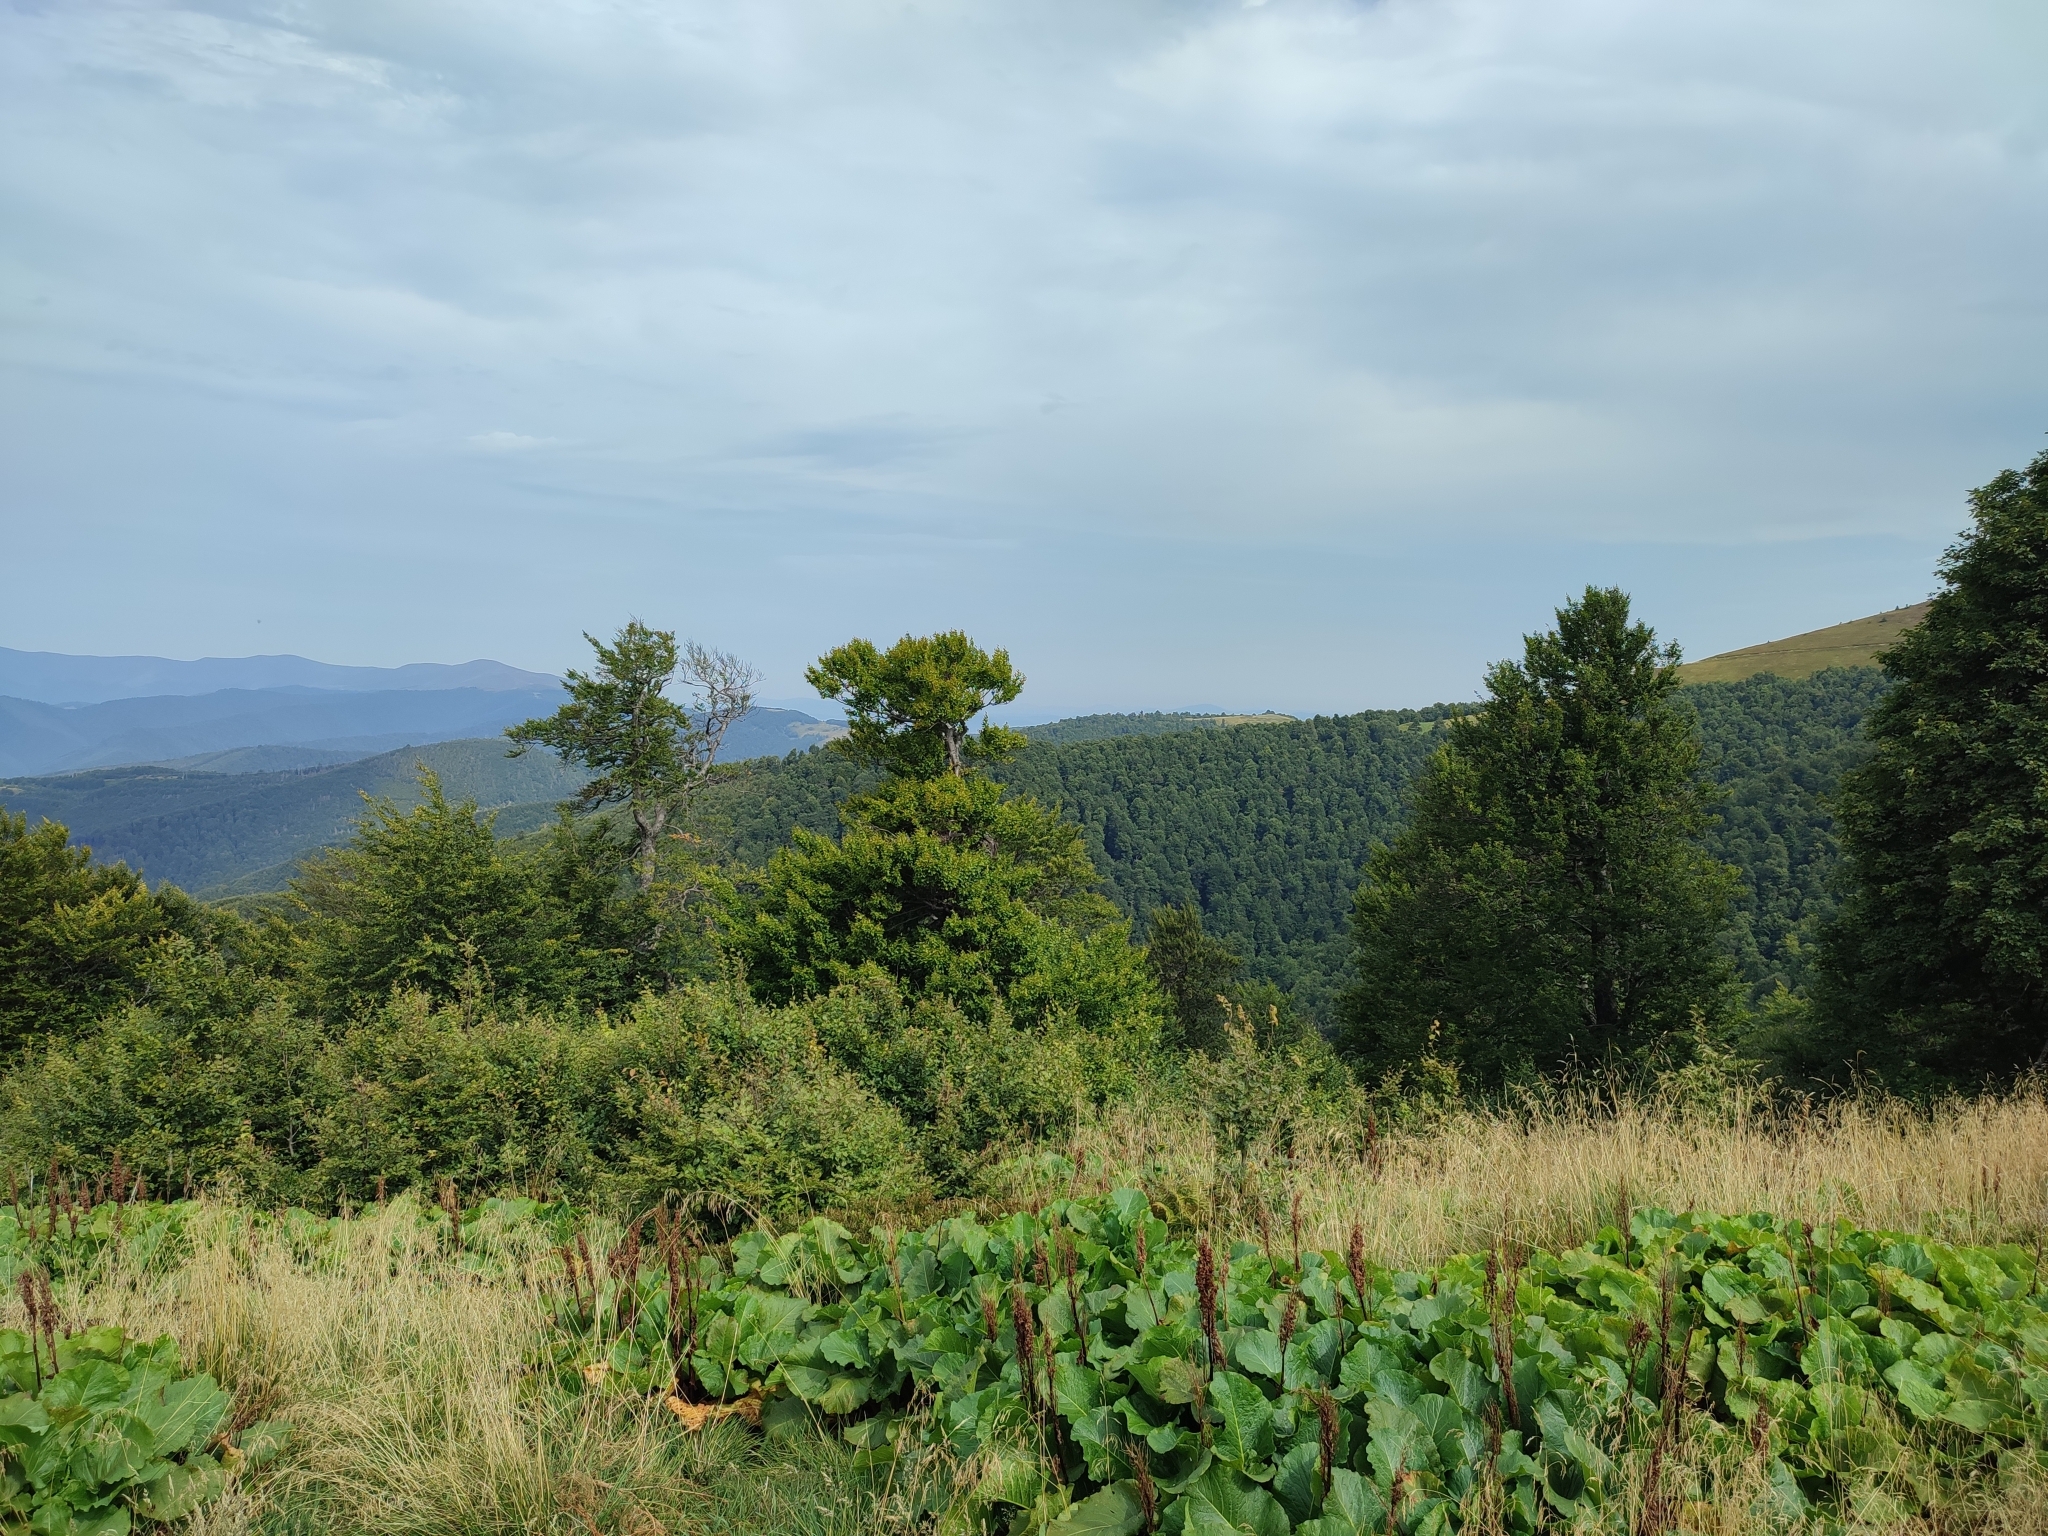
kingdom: Plantae
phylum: Tracheophyta
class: Magnoliopsida
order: Fagales
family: Fagaceae
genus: Fagus
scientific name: Fagus sylvatica
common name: Beech
